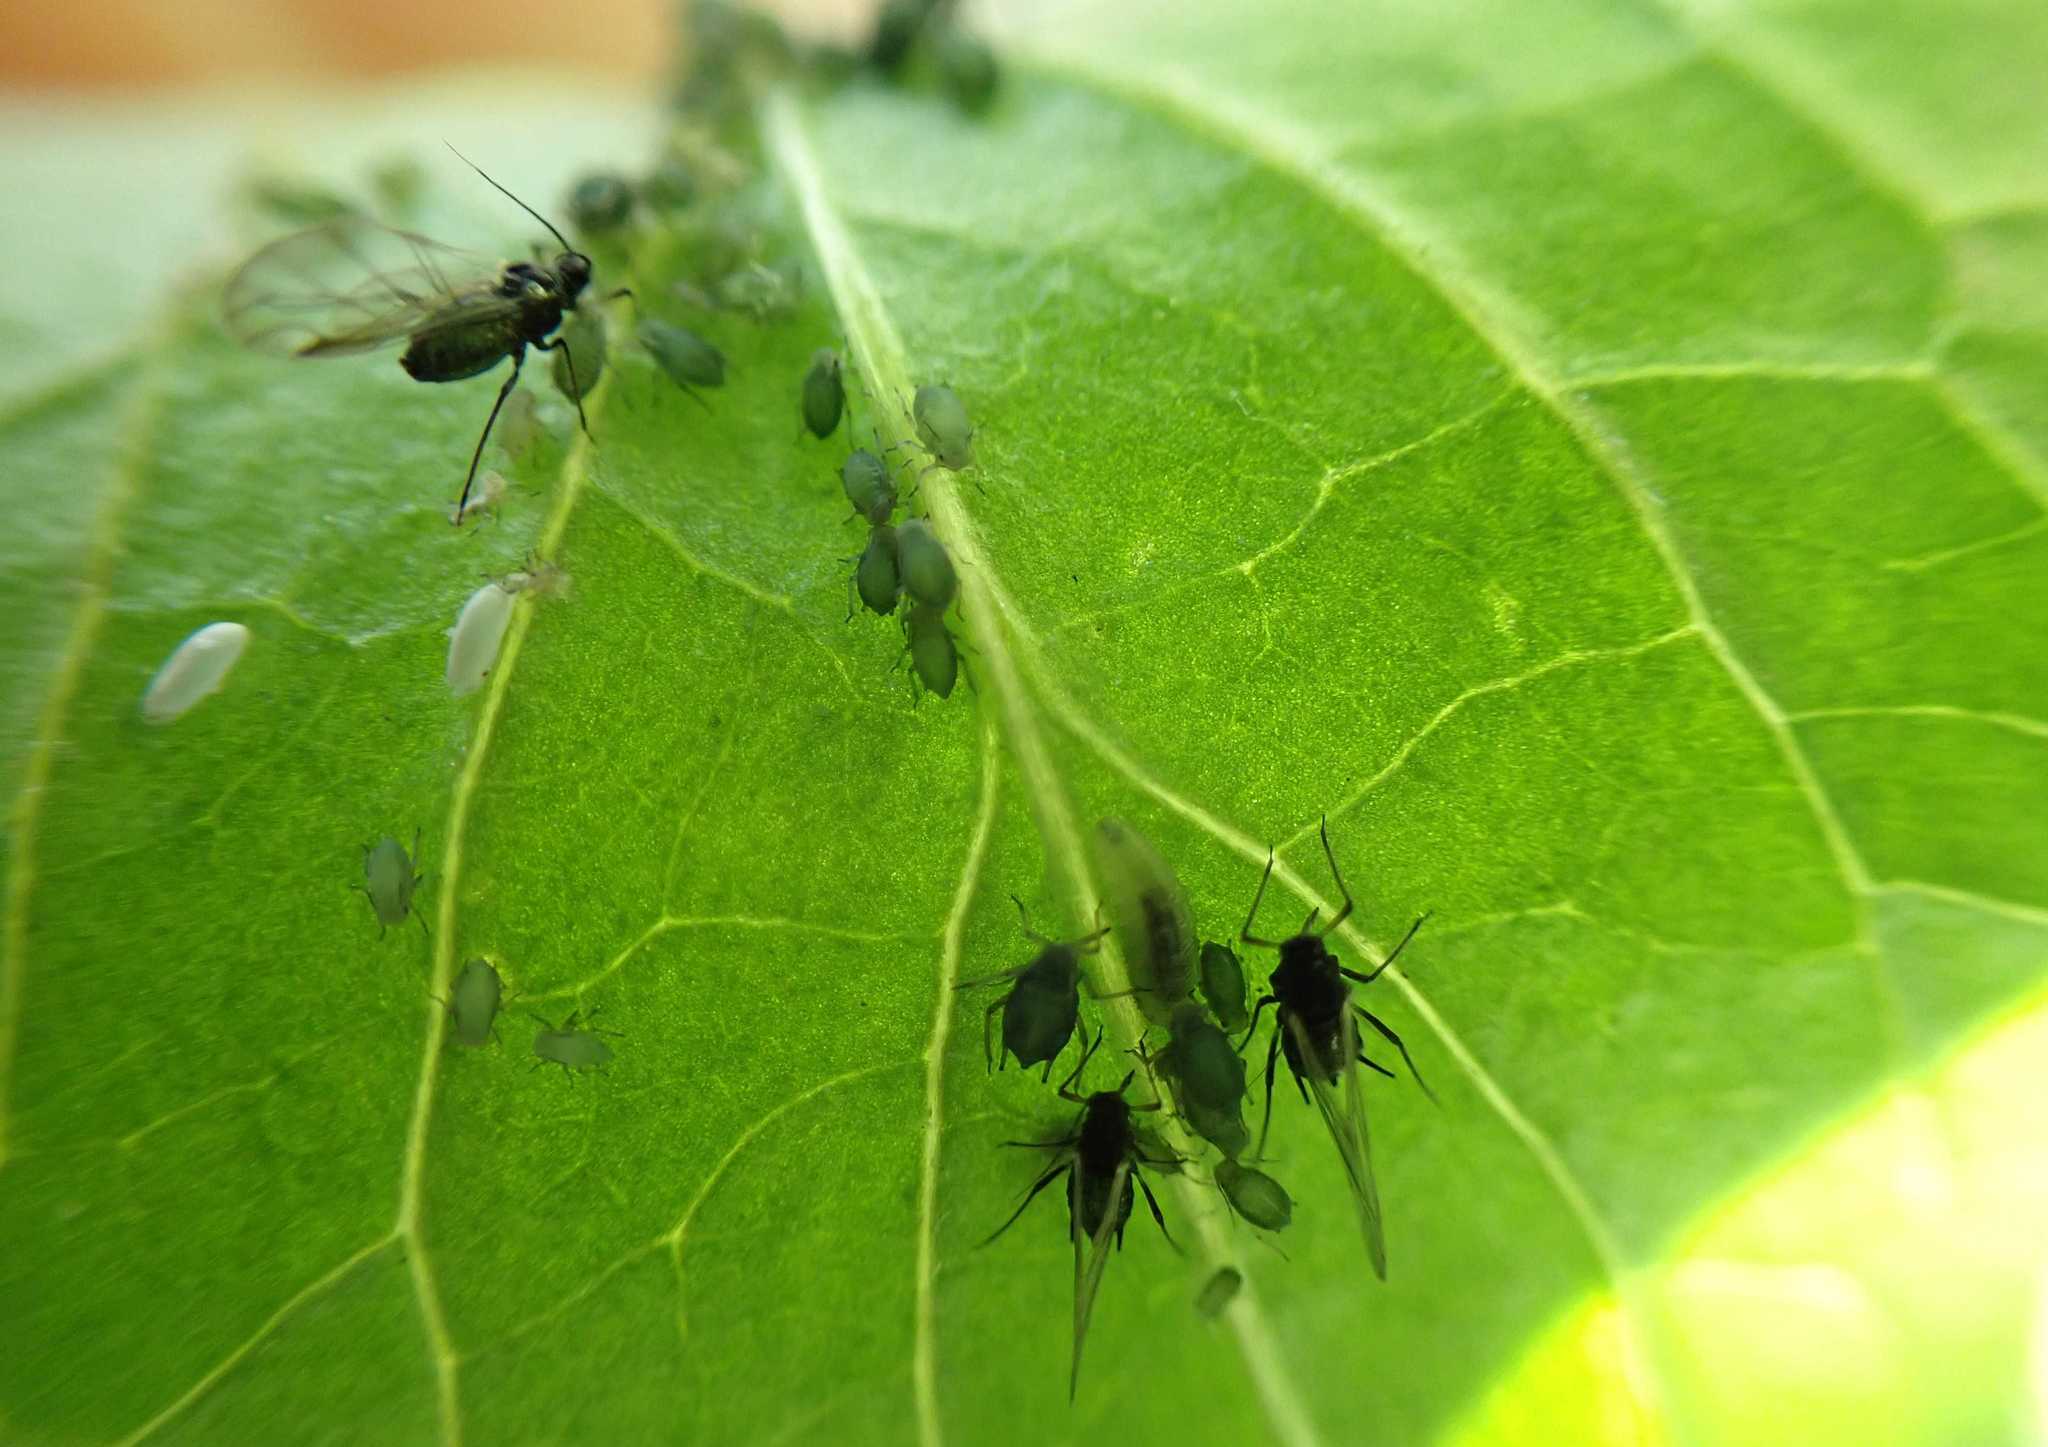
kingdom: Animalia
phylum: Arthropoda
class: Insecta
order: Hemiptera
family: Aphididae
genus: Aphis
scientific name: Aphis sambuci
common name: Elder aphid
